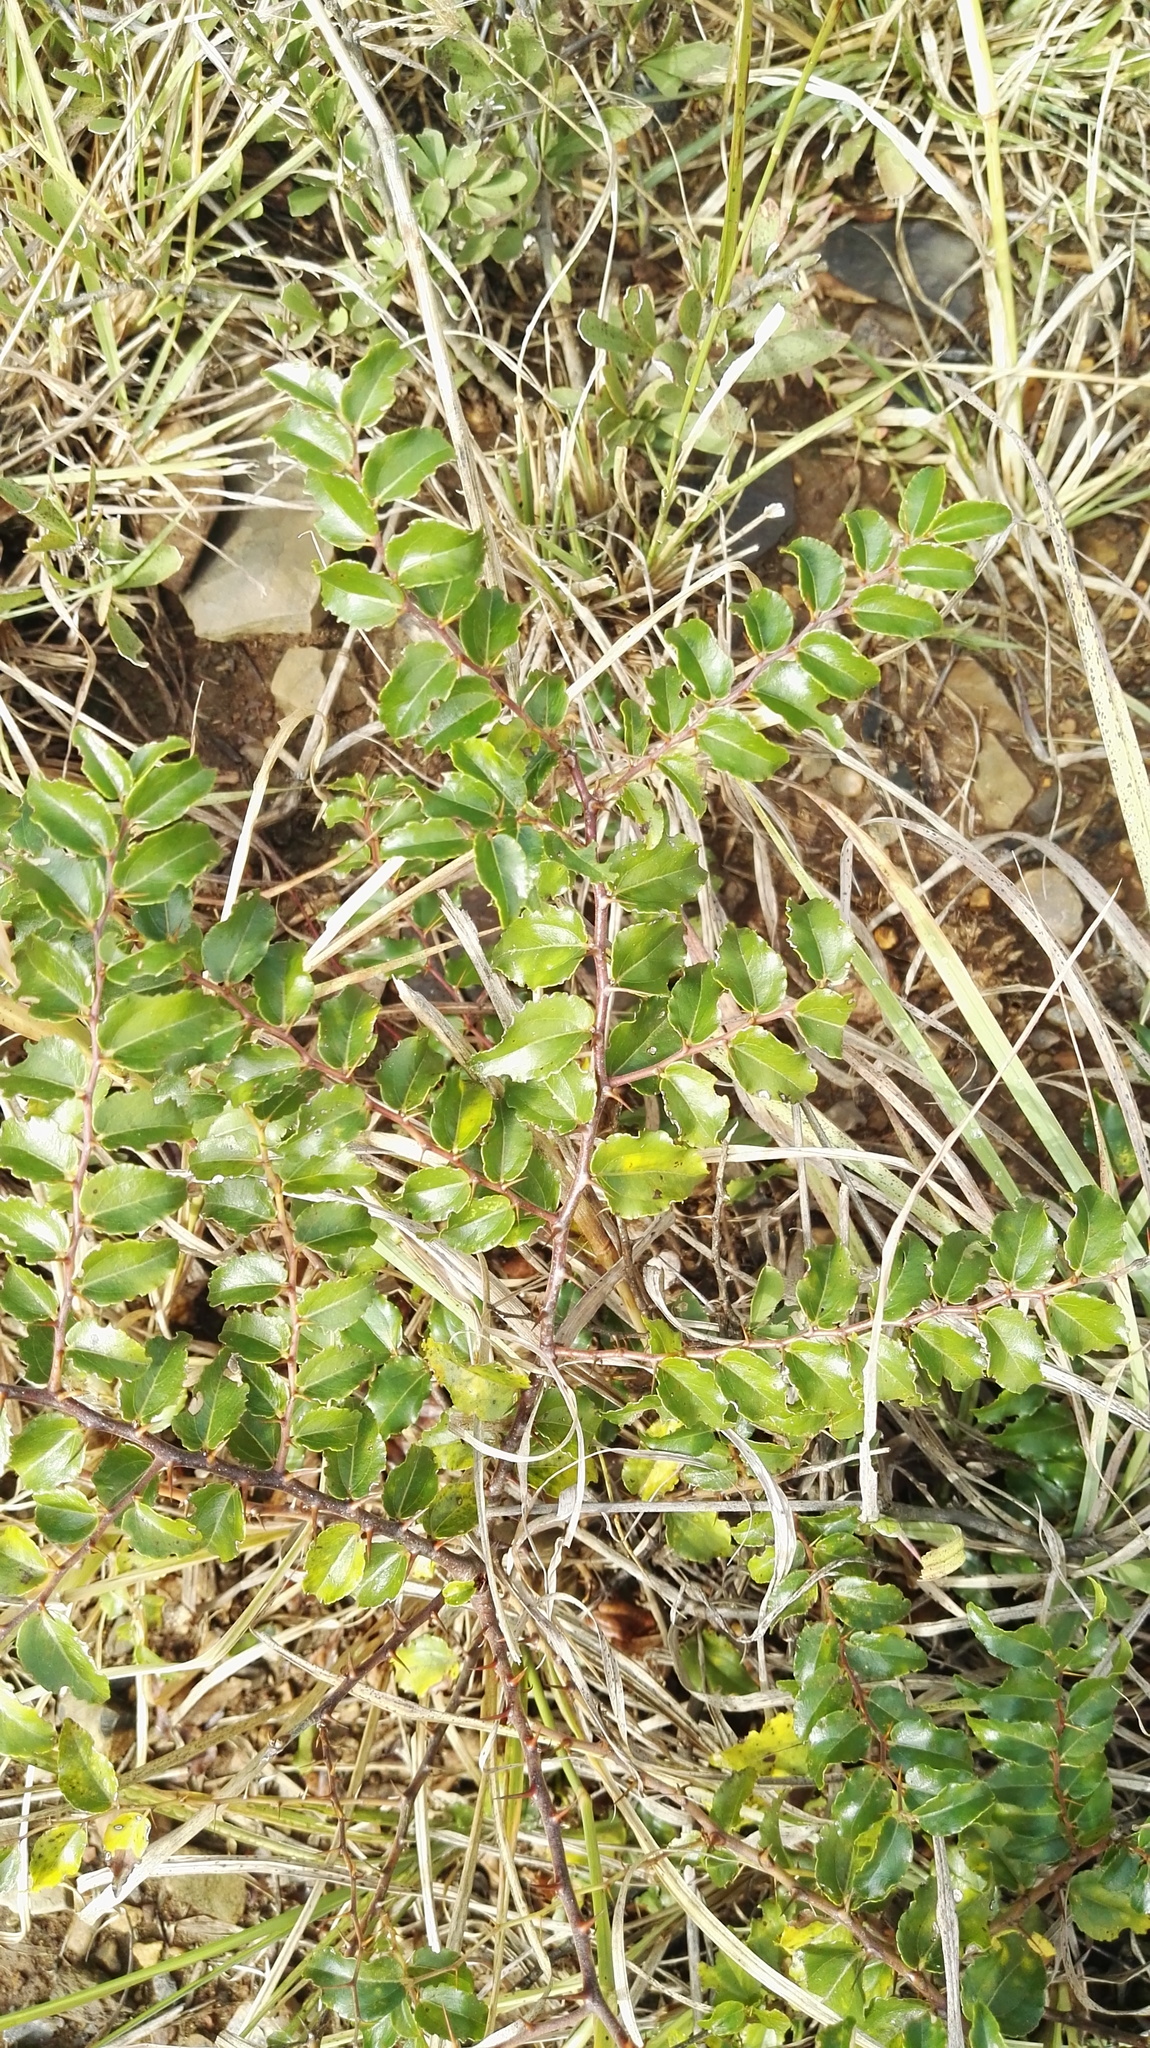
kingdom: Plantae
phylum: Tracheophyta
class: Magnoliopsida
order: Rosales
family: Rhamnaceae
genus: Ziziphus
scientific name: Ziziphus mucronata
